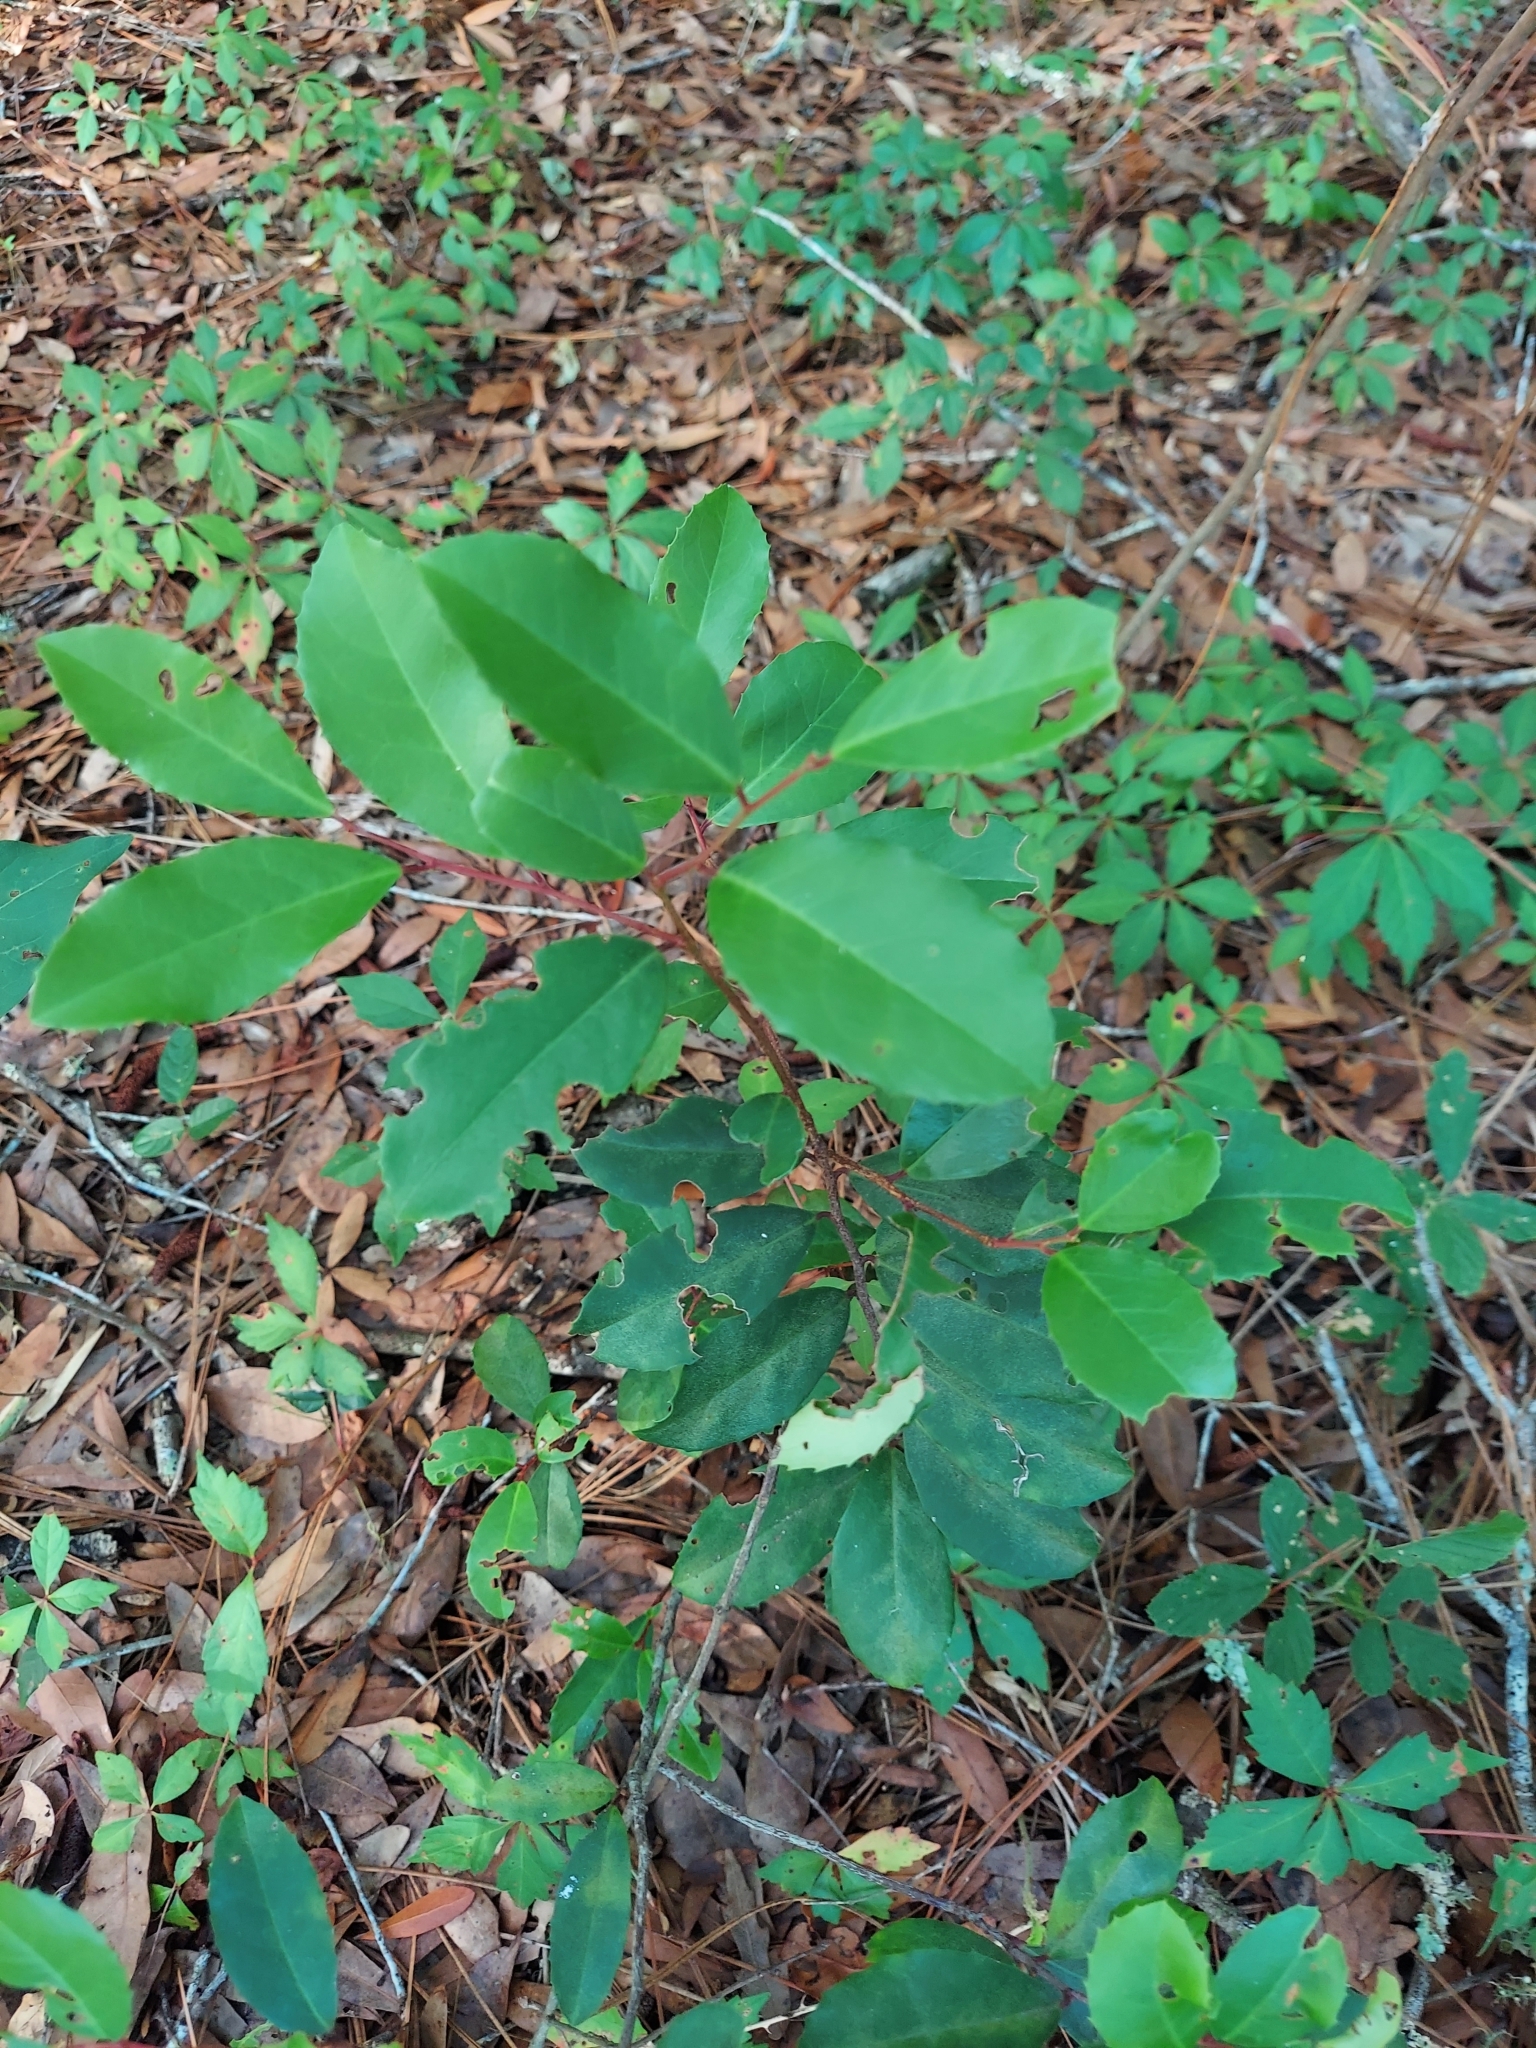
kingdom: Plantae
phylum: Tracheophyta
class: Magnoliopsida
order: Rosales
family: Rosaceae
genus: Prunus
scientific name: Prunus caroliniana
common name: Carolina laurel cherry
